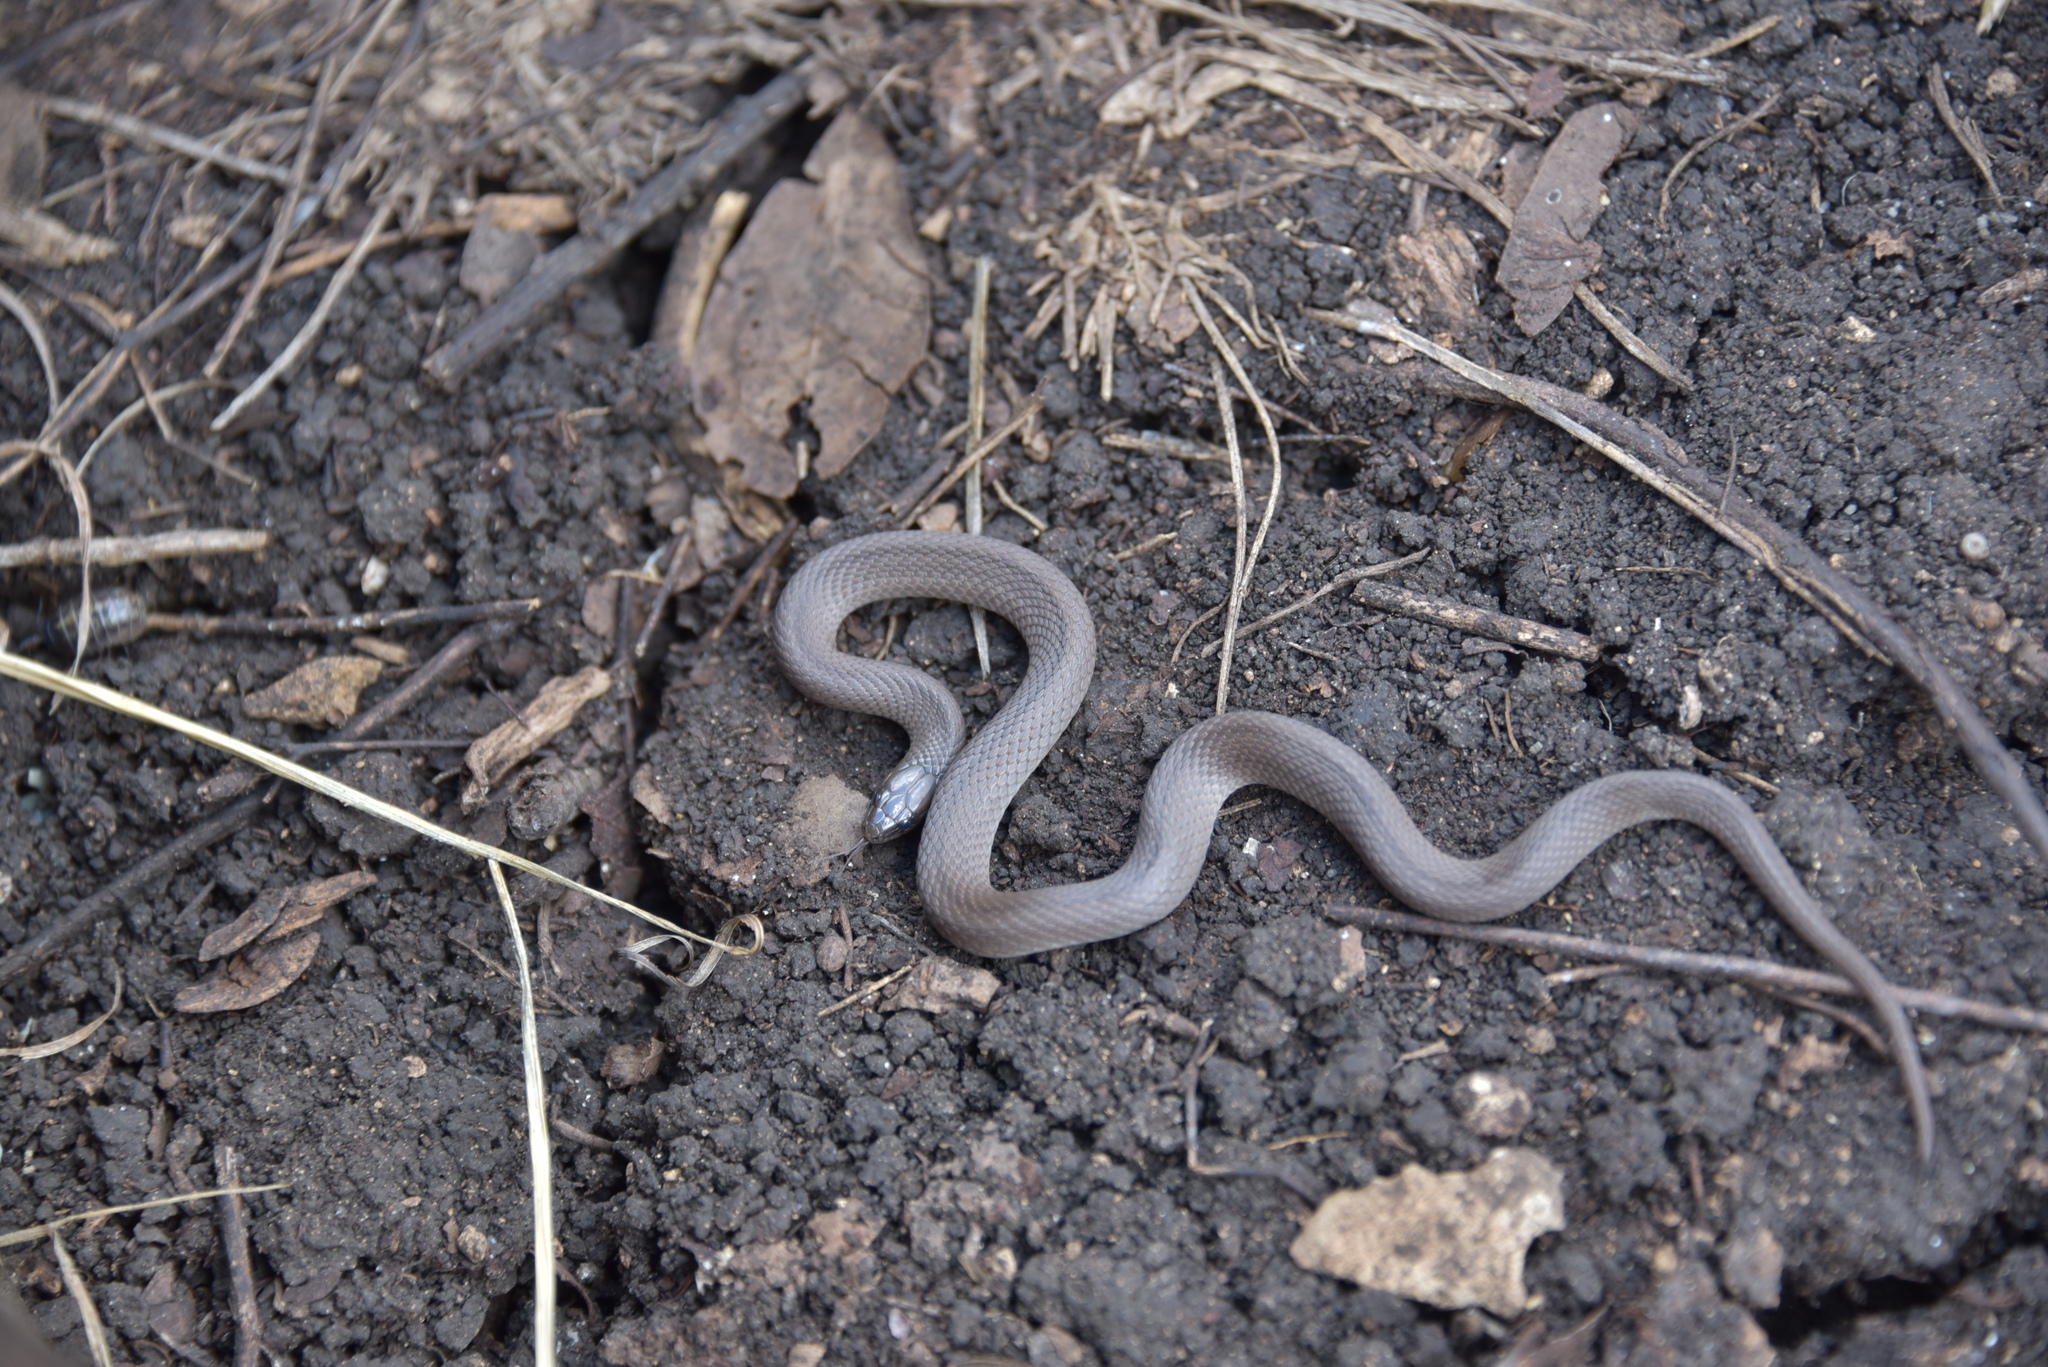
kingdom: Animalia
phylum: Chordata
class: Squamata
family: Colubridae
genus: Haldea
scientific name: Haldea striatula
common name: Rough earth snake
